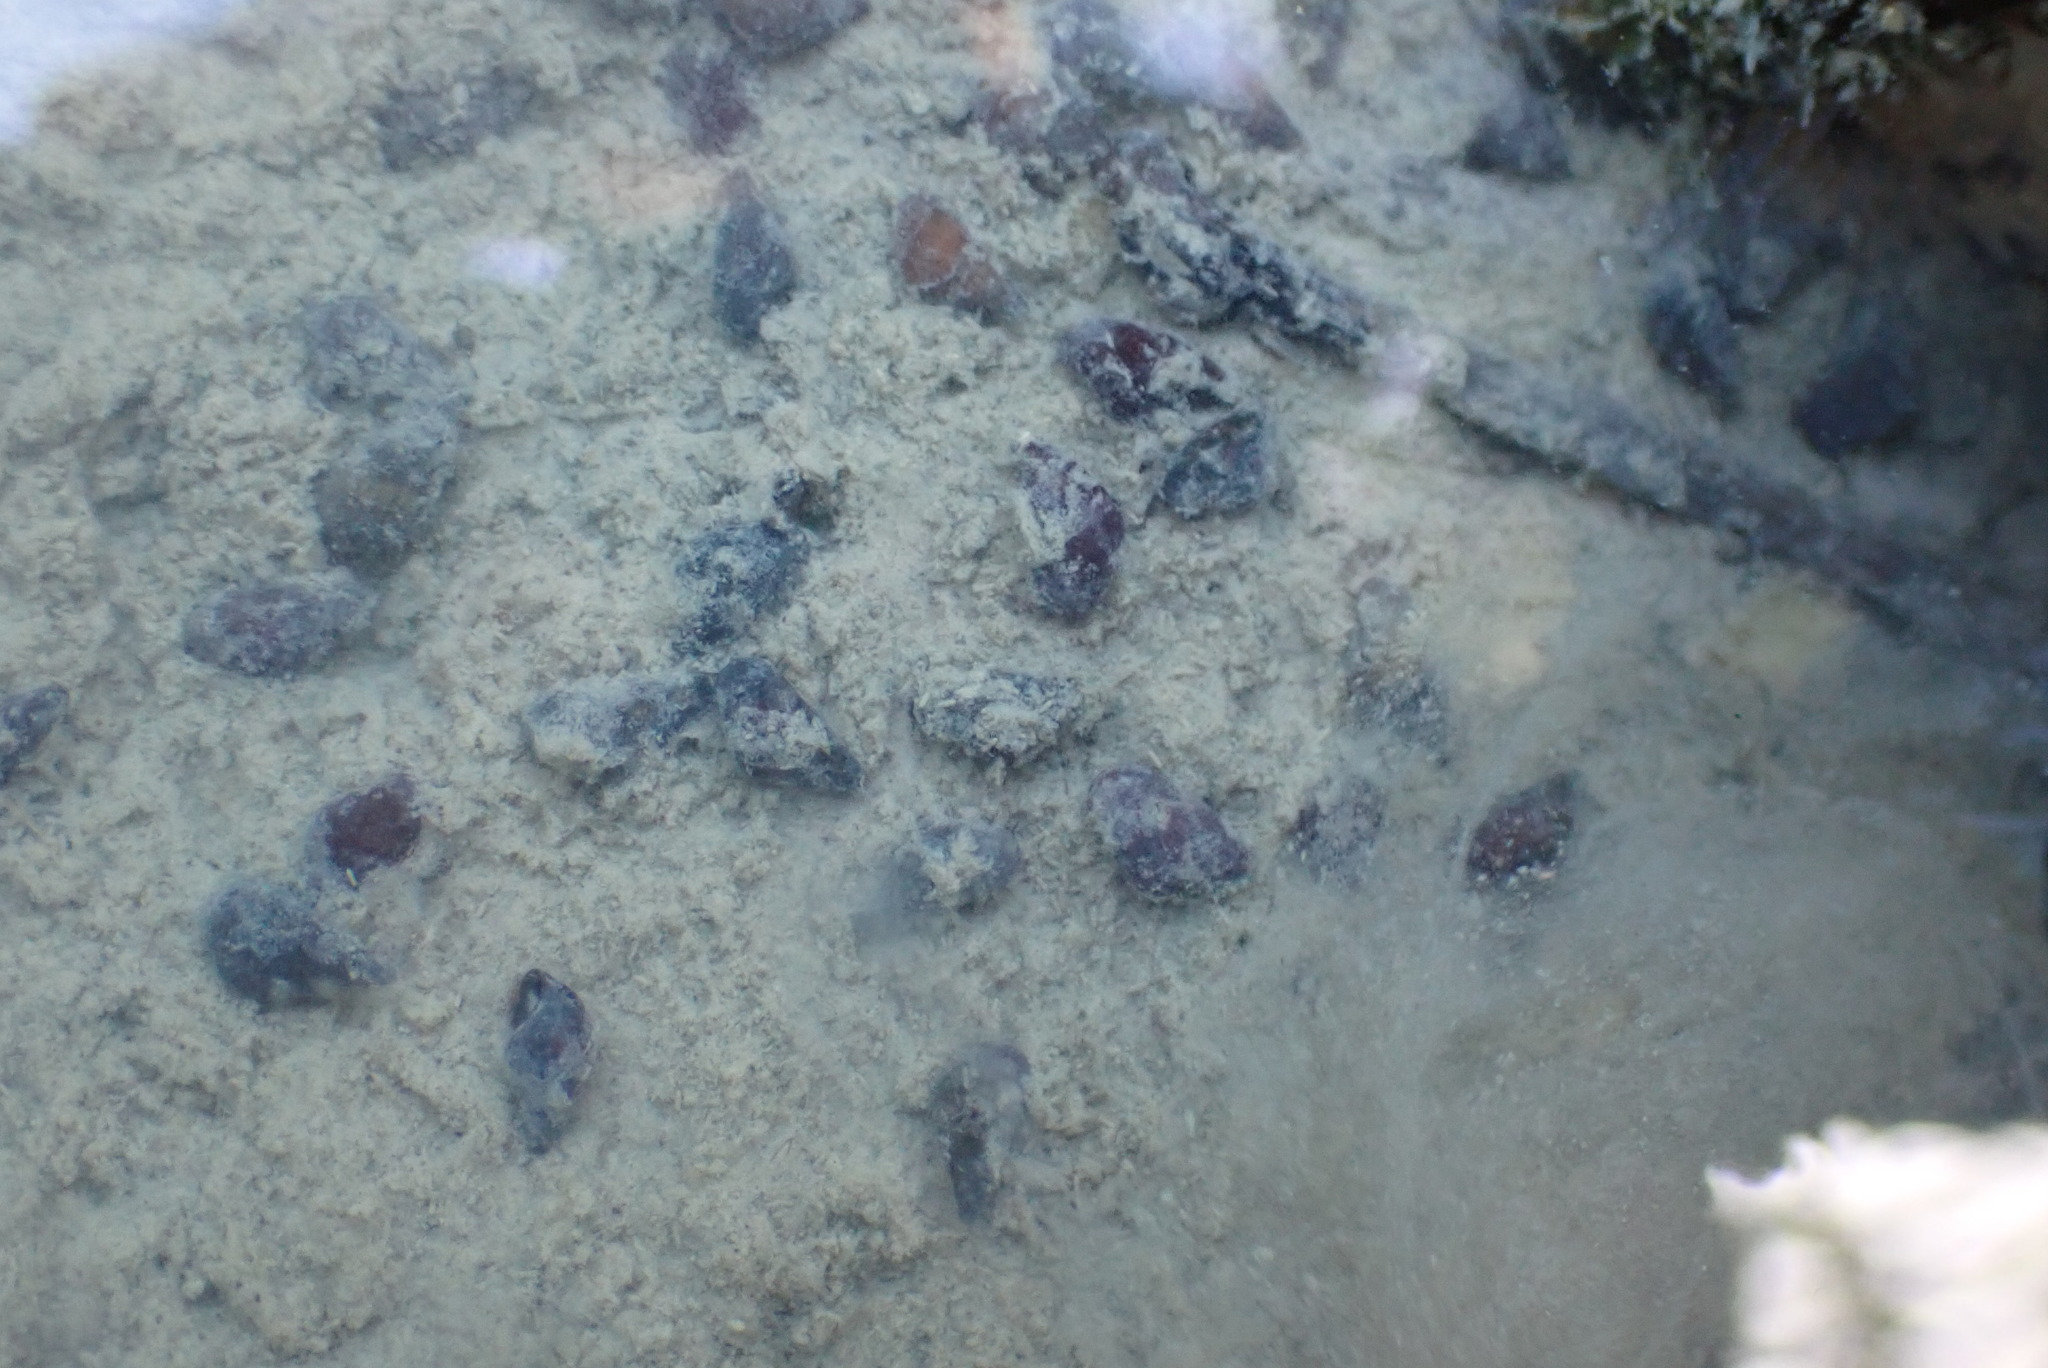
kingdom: Animalia
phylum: Mollusca
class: Gastropoda
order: Littorinimorpha
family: Tateidae
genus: Potamopyrgus
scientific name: Potamopyrgus estuarinus
